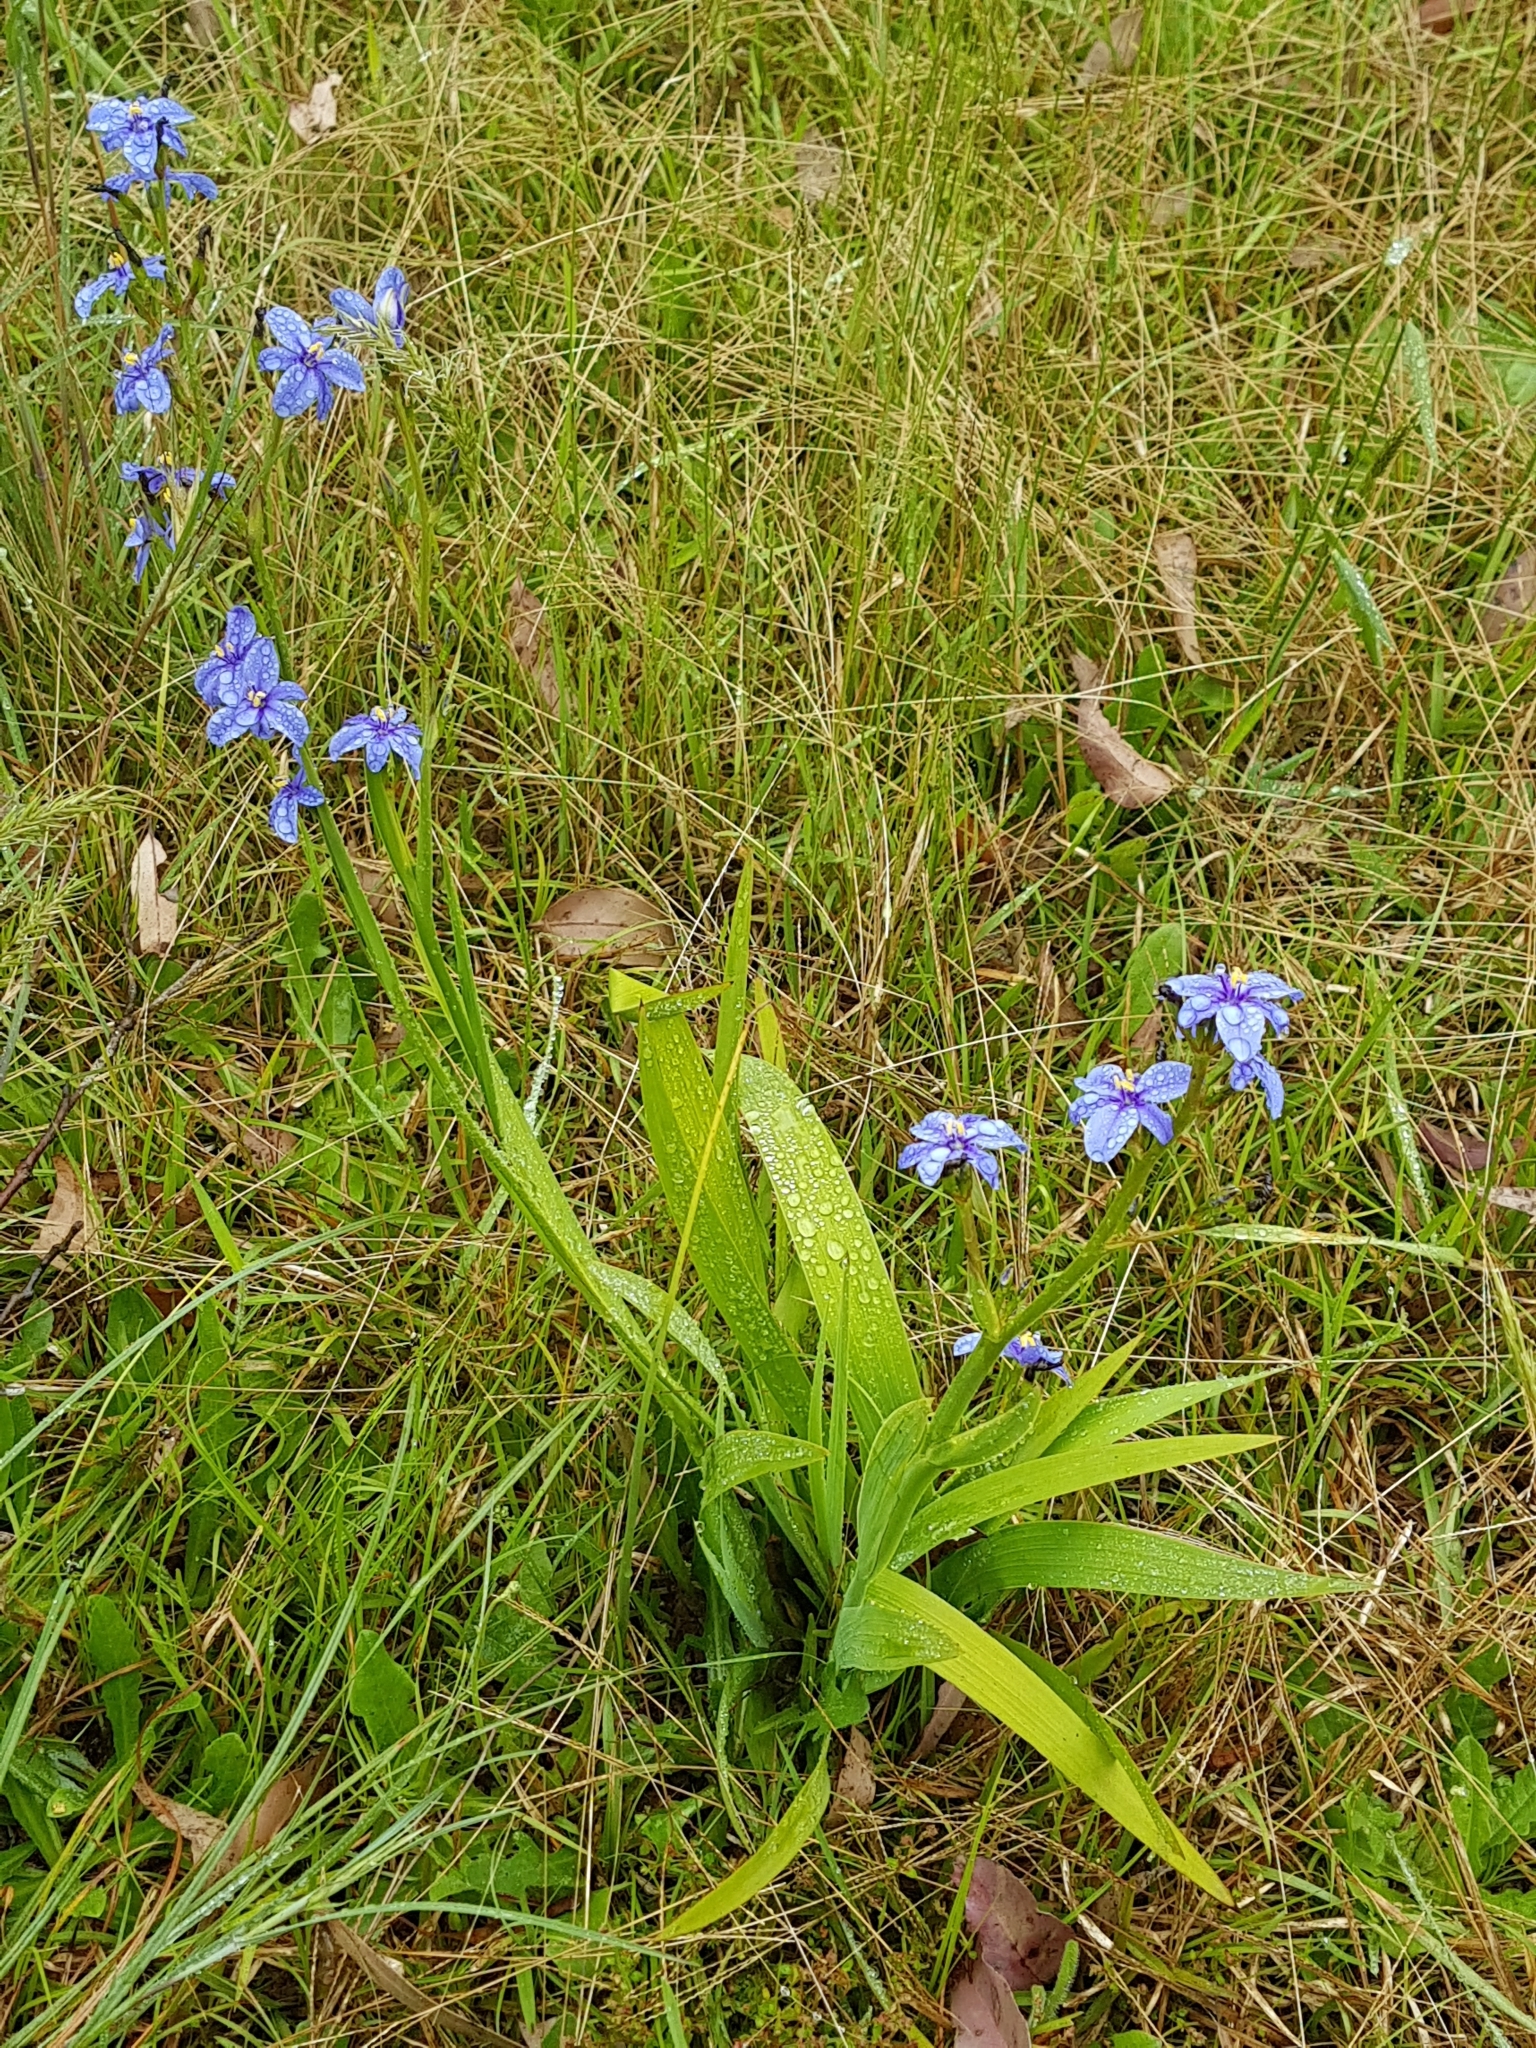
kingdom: Plantae
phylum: Tracheophyta
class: Liliopsida
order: Asparagales
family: Iridaceae
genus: Aristea
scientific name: Aristea ecklonii
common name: Blue corn-lily
